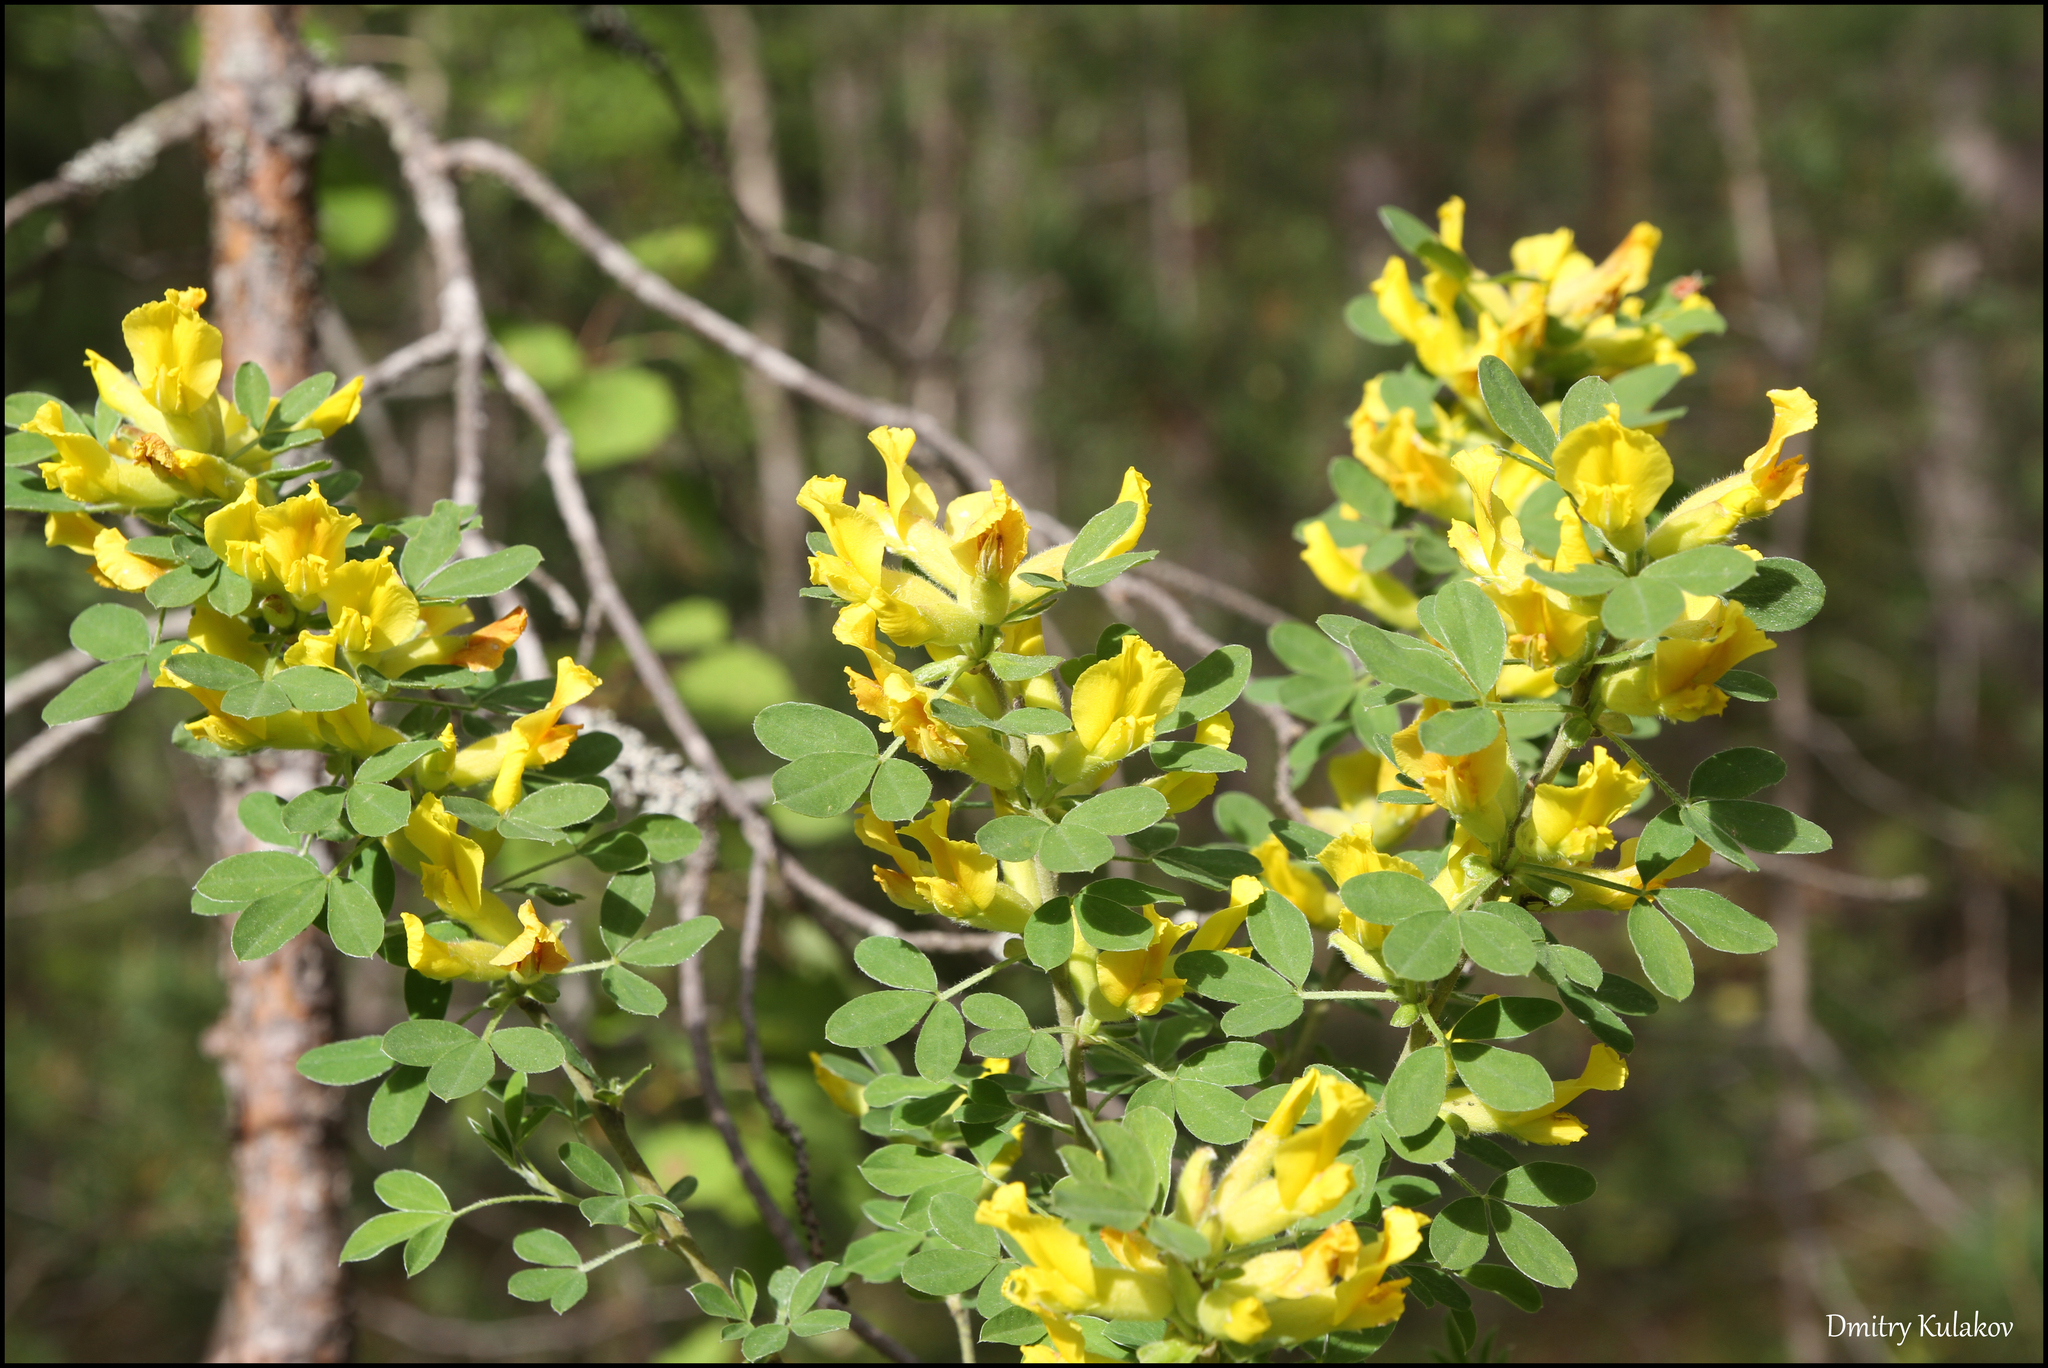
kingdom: Plantae
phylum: Tracheophyta
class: Magnoliopsida
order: Fabales
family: Fabaceae
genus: Chamaecytisus
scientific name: Chamaecytisus ruthenicus
